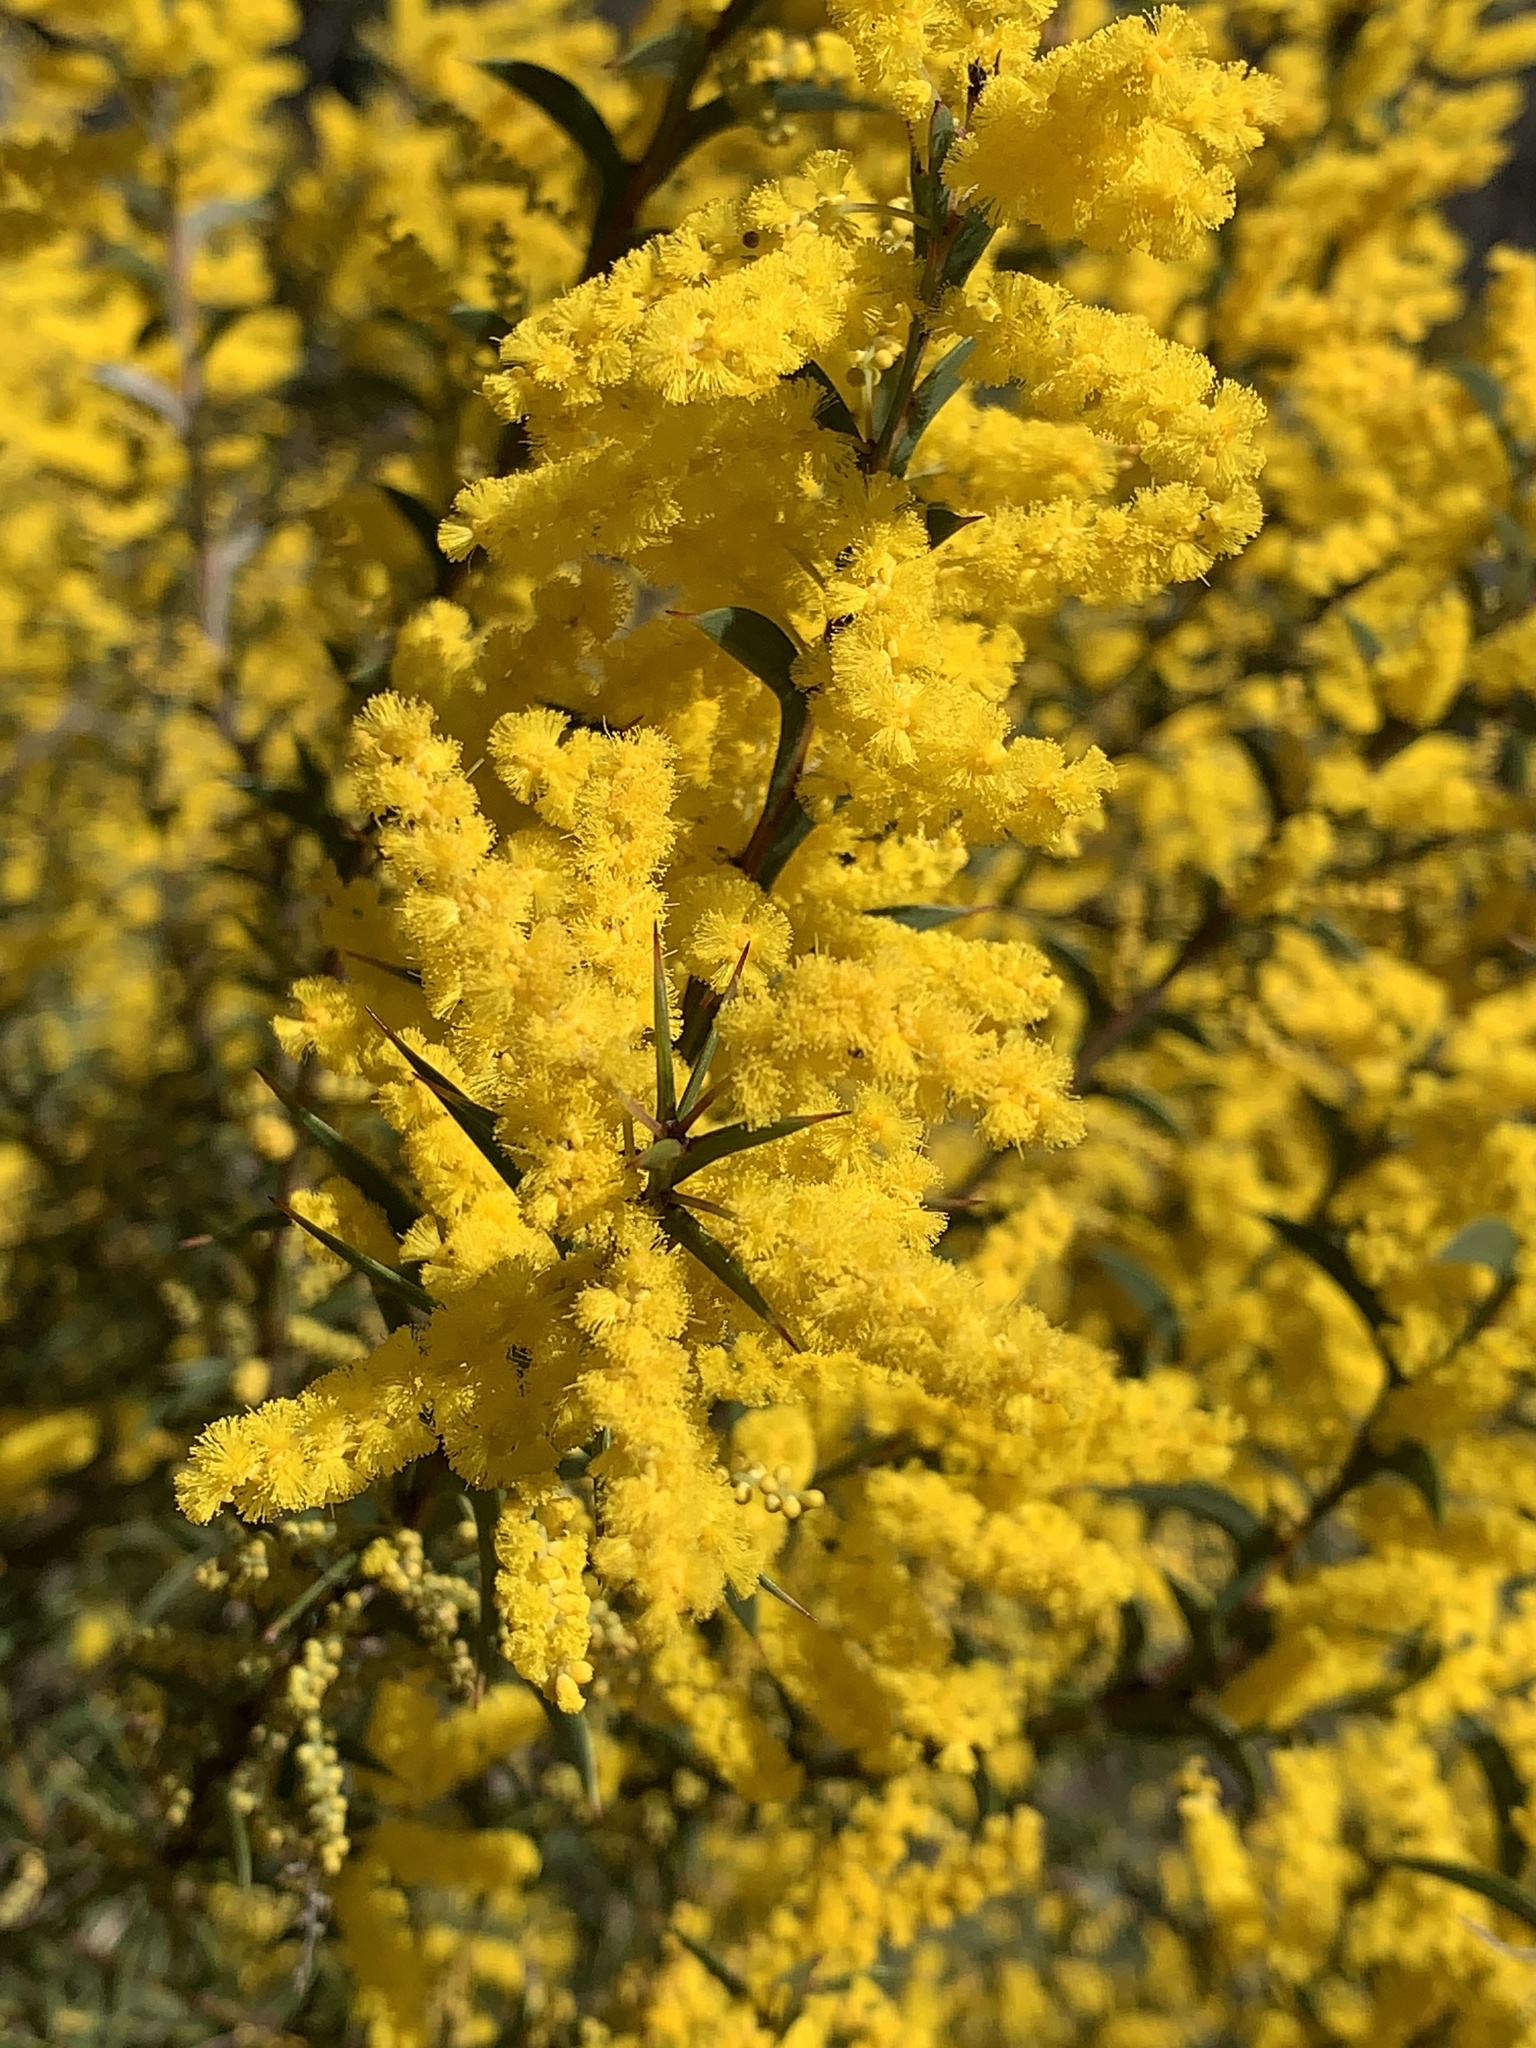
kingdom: Plantae
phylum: Tracheophyta
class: Magnoliopsida
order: Fabales
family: Fabaceae
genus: Acacia
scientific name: Acacia triptera
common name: Spur-wing wattle
